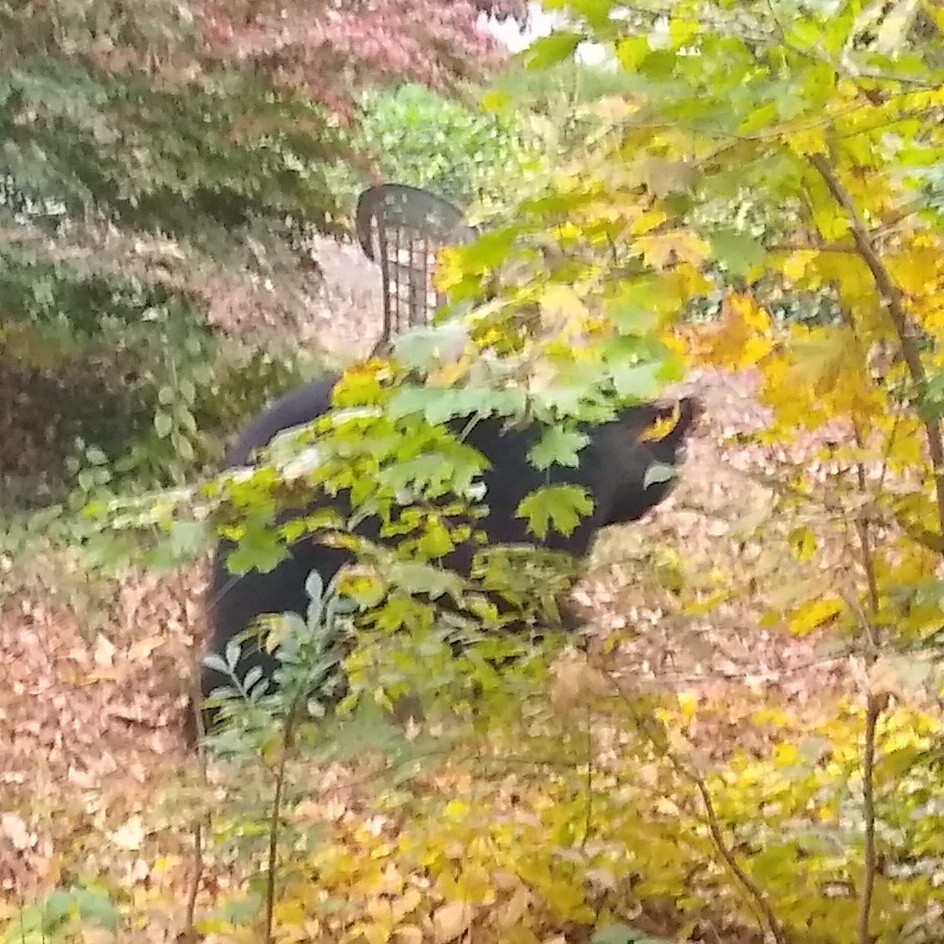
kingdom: Animalia
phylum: Chordata
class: Mammalia
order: Carnivora
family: Ursidae
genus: Ursus
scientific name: Ursus americanus
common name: American black bear
